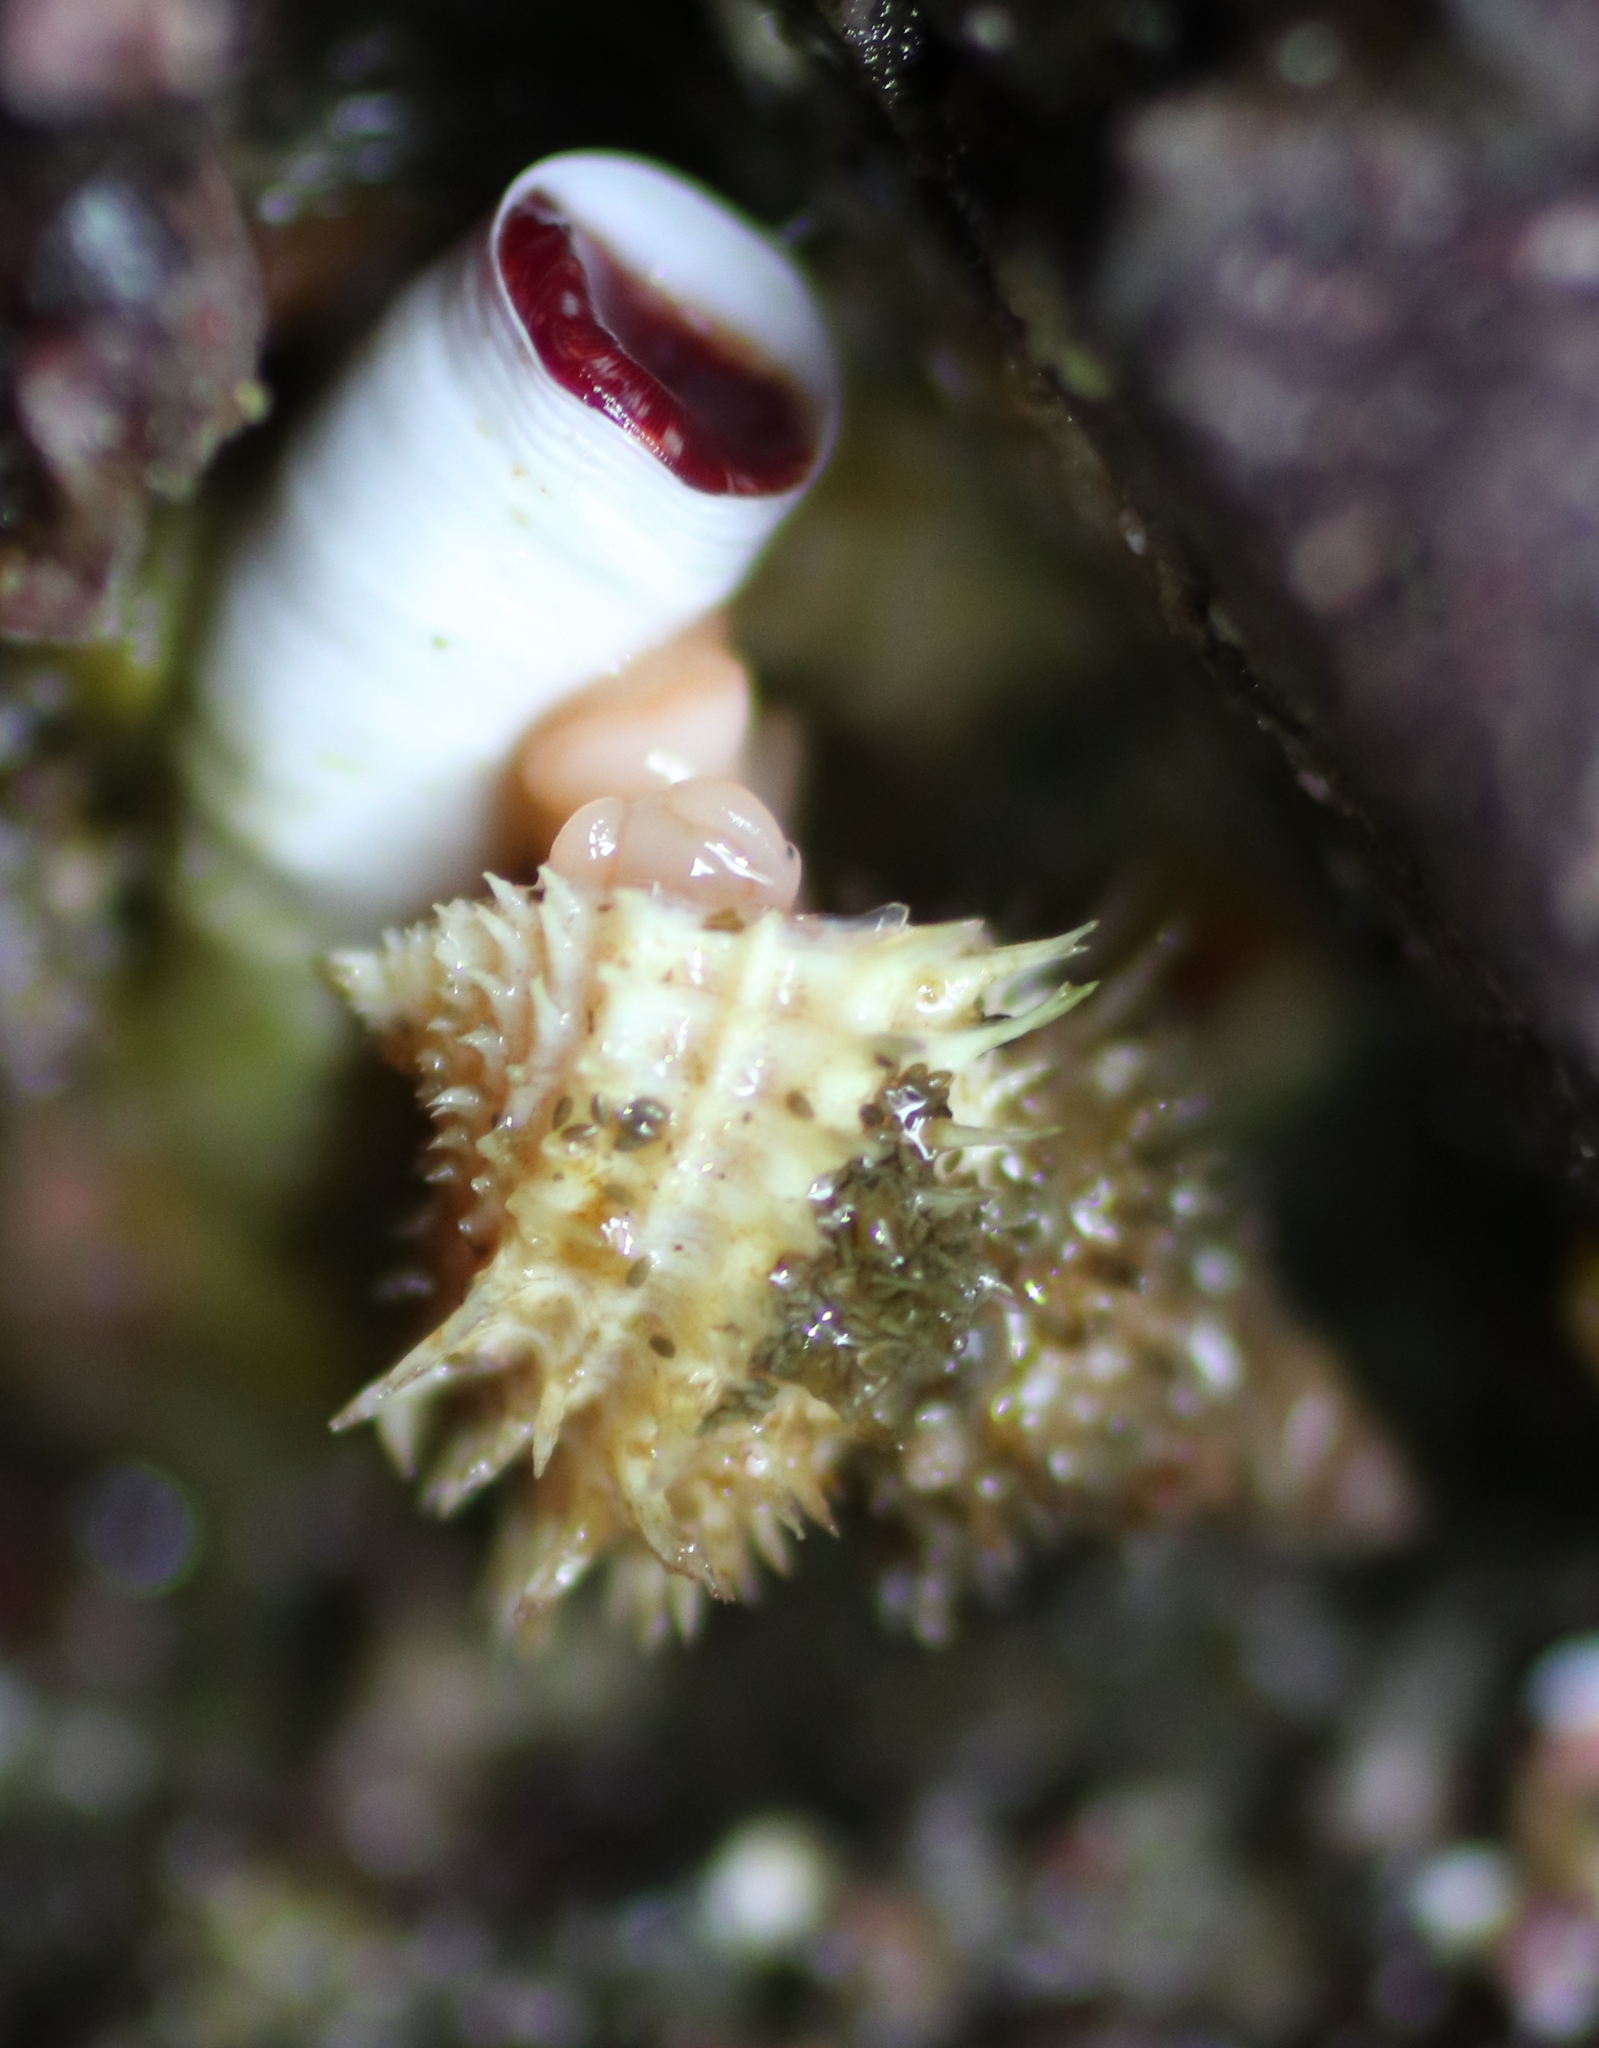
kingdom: Animalia
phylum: Mollusca
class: Gastropoda
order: Littorinimorpha
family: Capulidae
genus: Trichotropis
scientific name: Trichotropis cancellata
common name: Cancellate hairysnail
